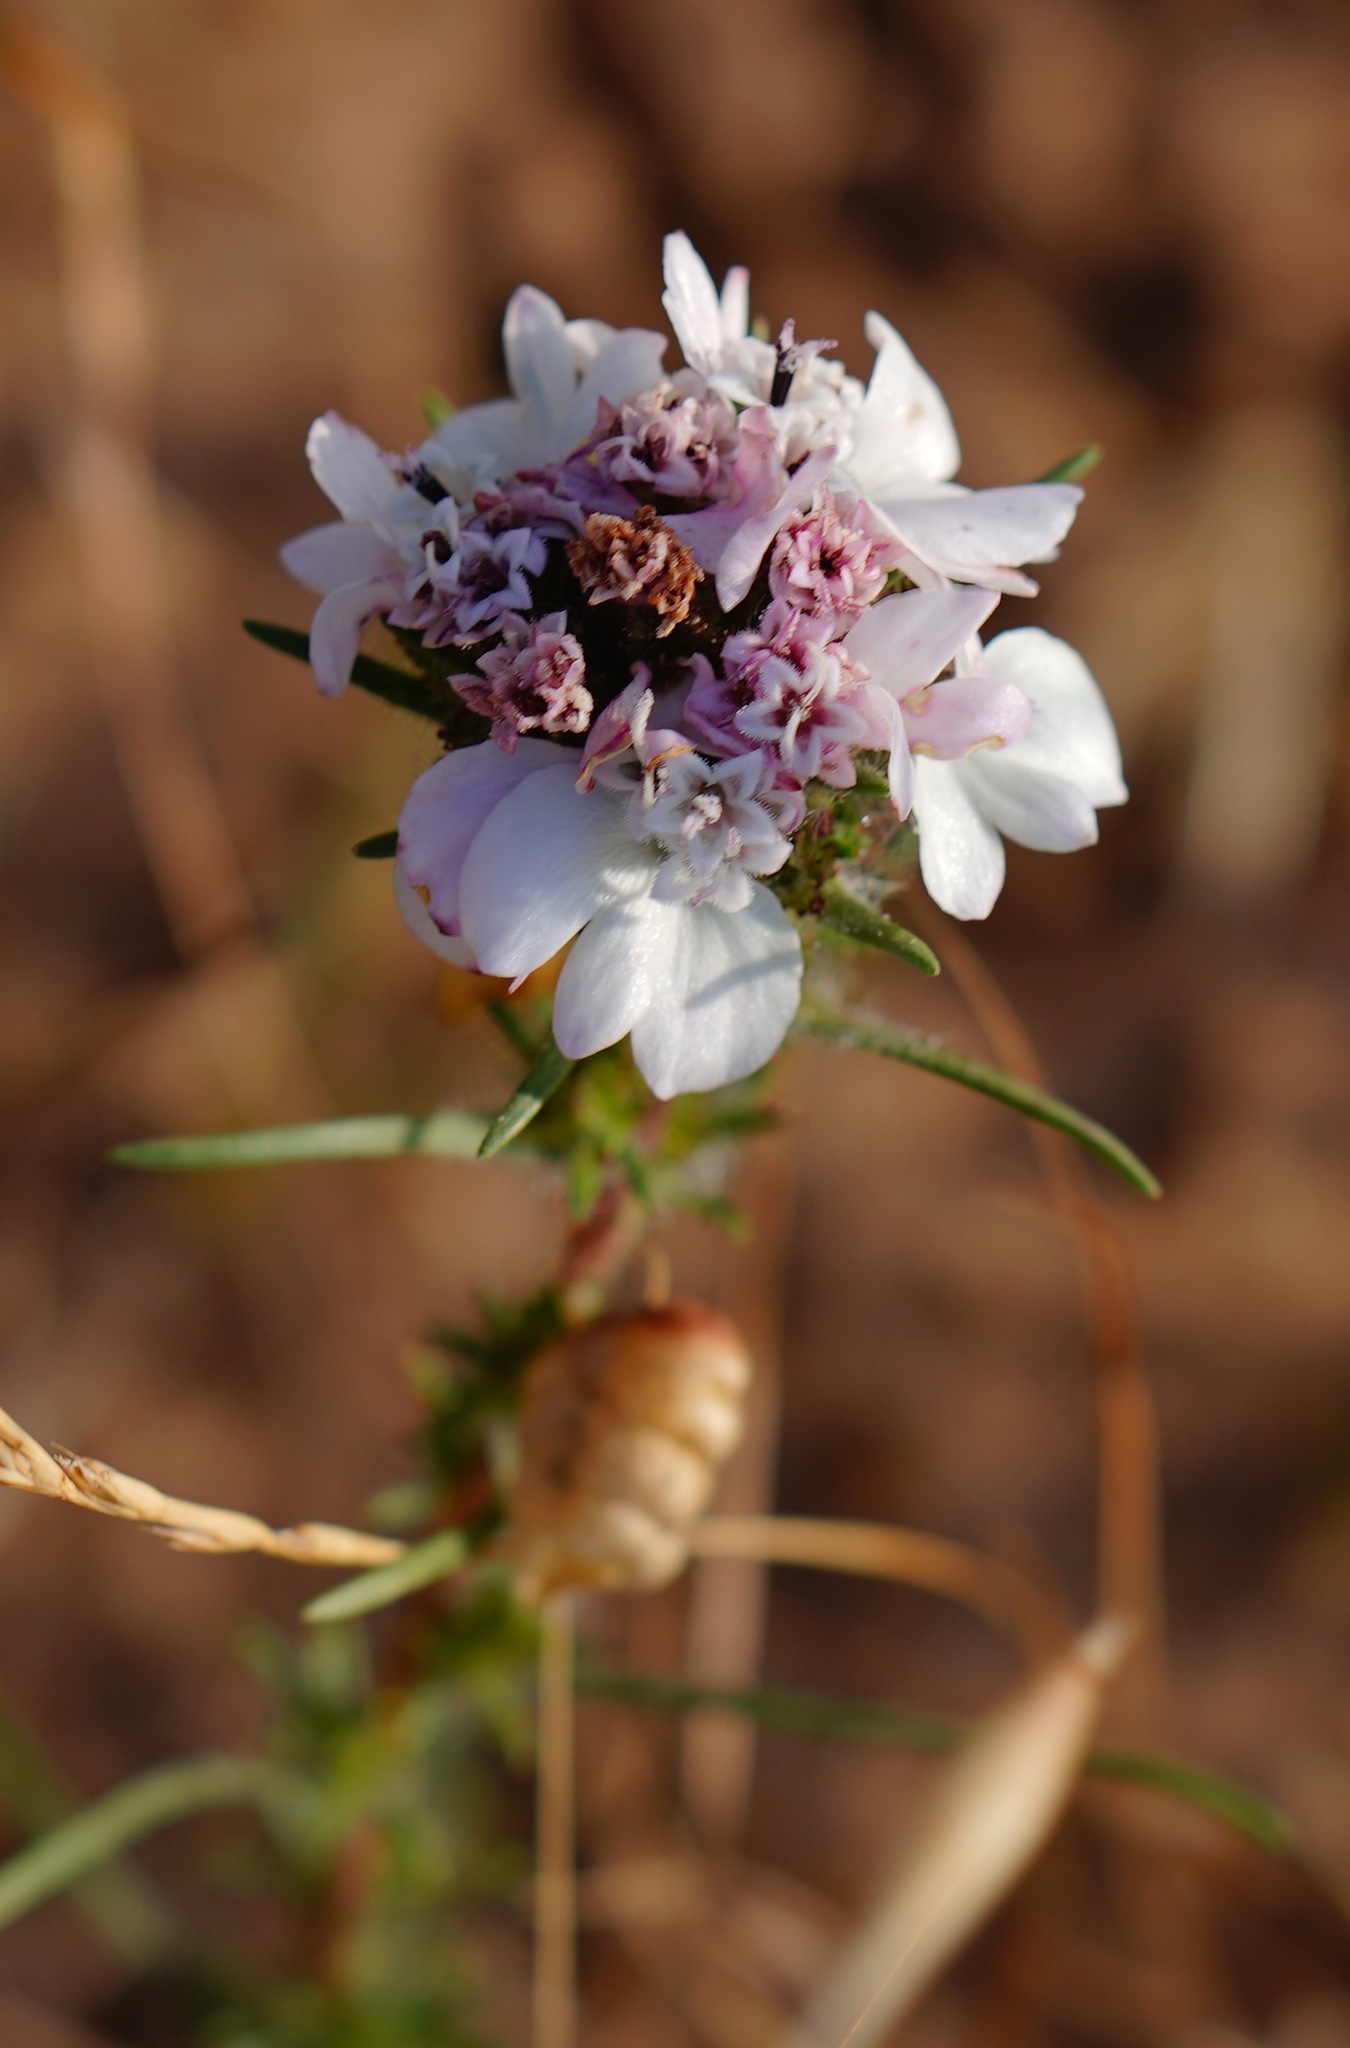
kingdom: Plantae
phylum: Tracheophyta
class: Magnoliopsida
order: Asterales
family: Asteraceae
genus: Calycadenia
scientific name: Calycadenia multiglandulosa
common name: Sticky calycadenia
